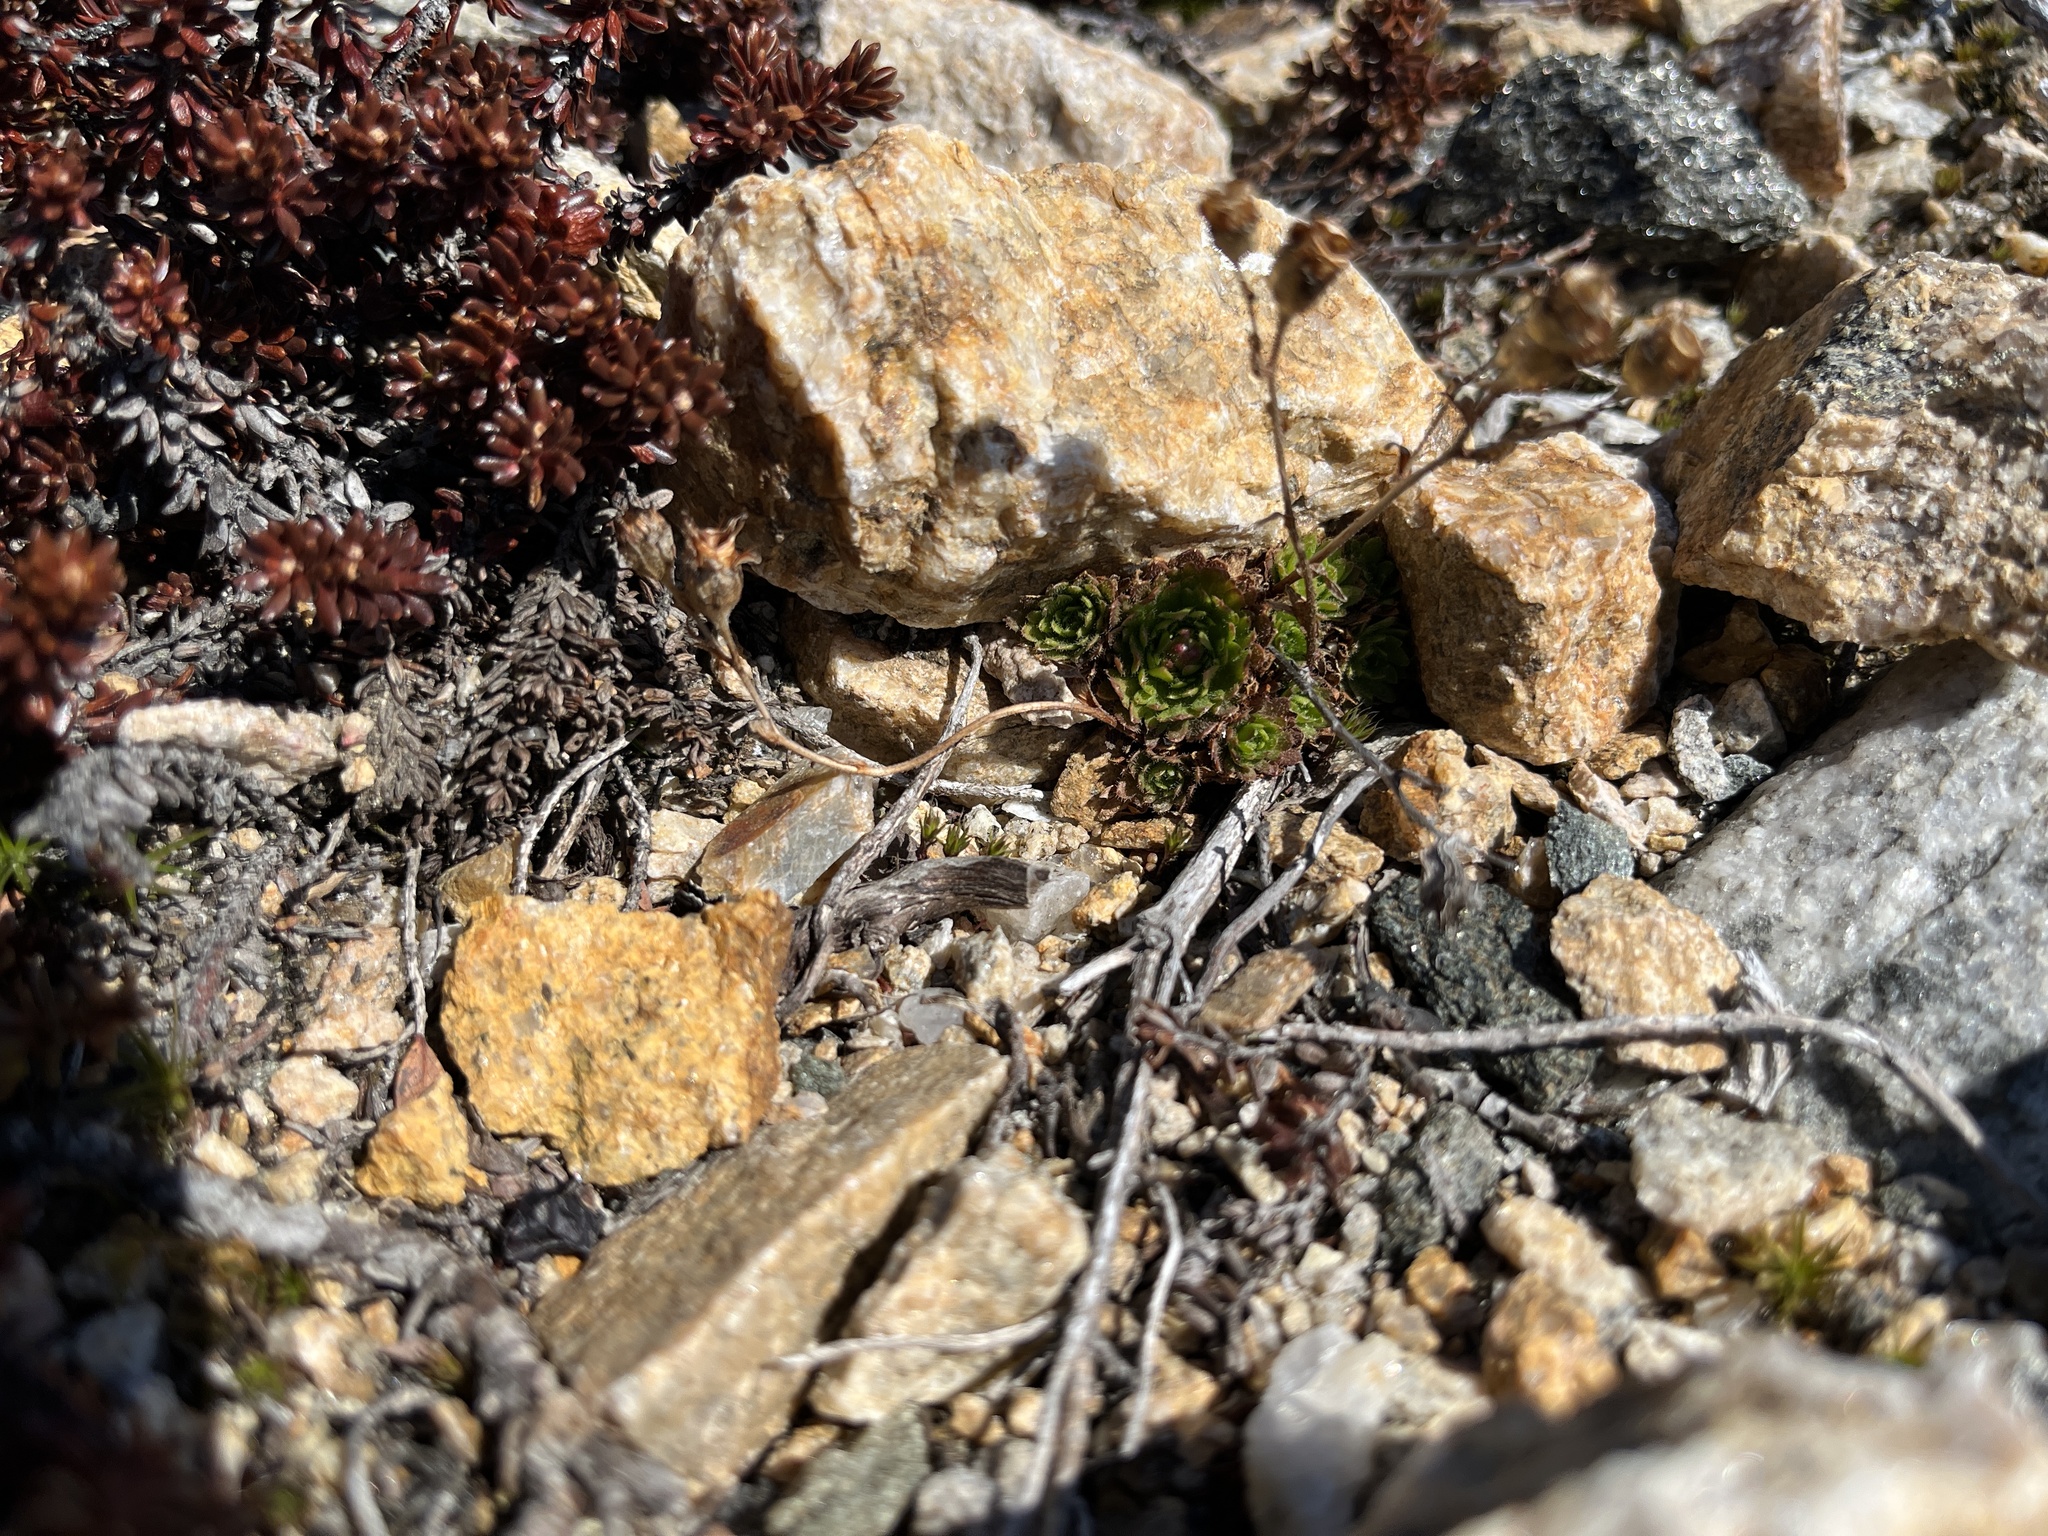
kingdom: Plantae
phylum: Tracheophyta
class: Magnoliopsida
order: Saxifragales
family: Saxifragaceae
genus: Saxifraga
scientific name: Saxifraga cespitosa
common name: Tufted saxifrage
